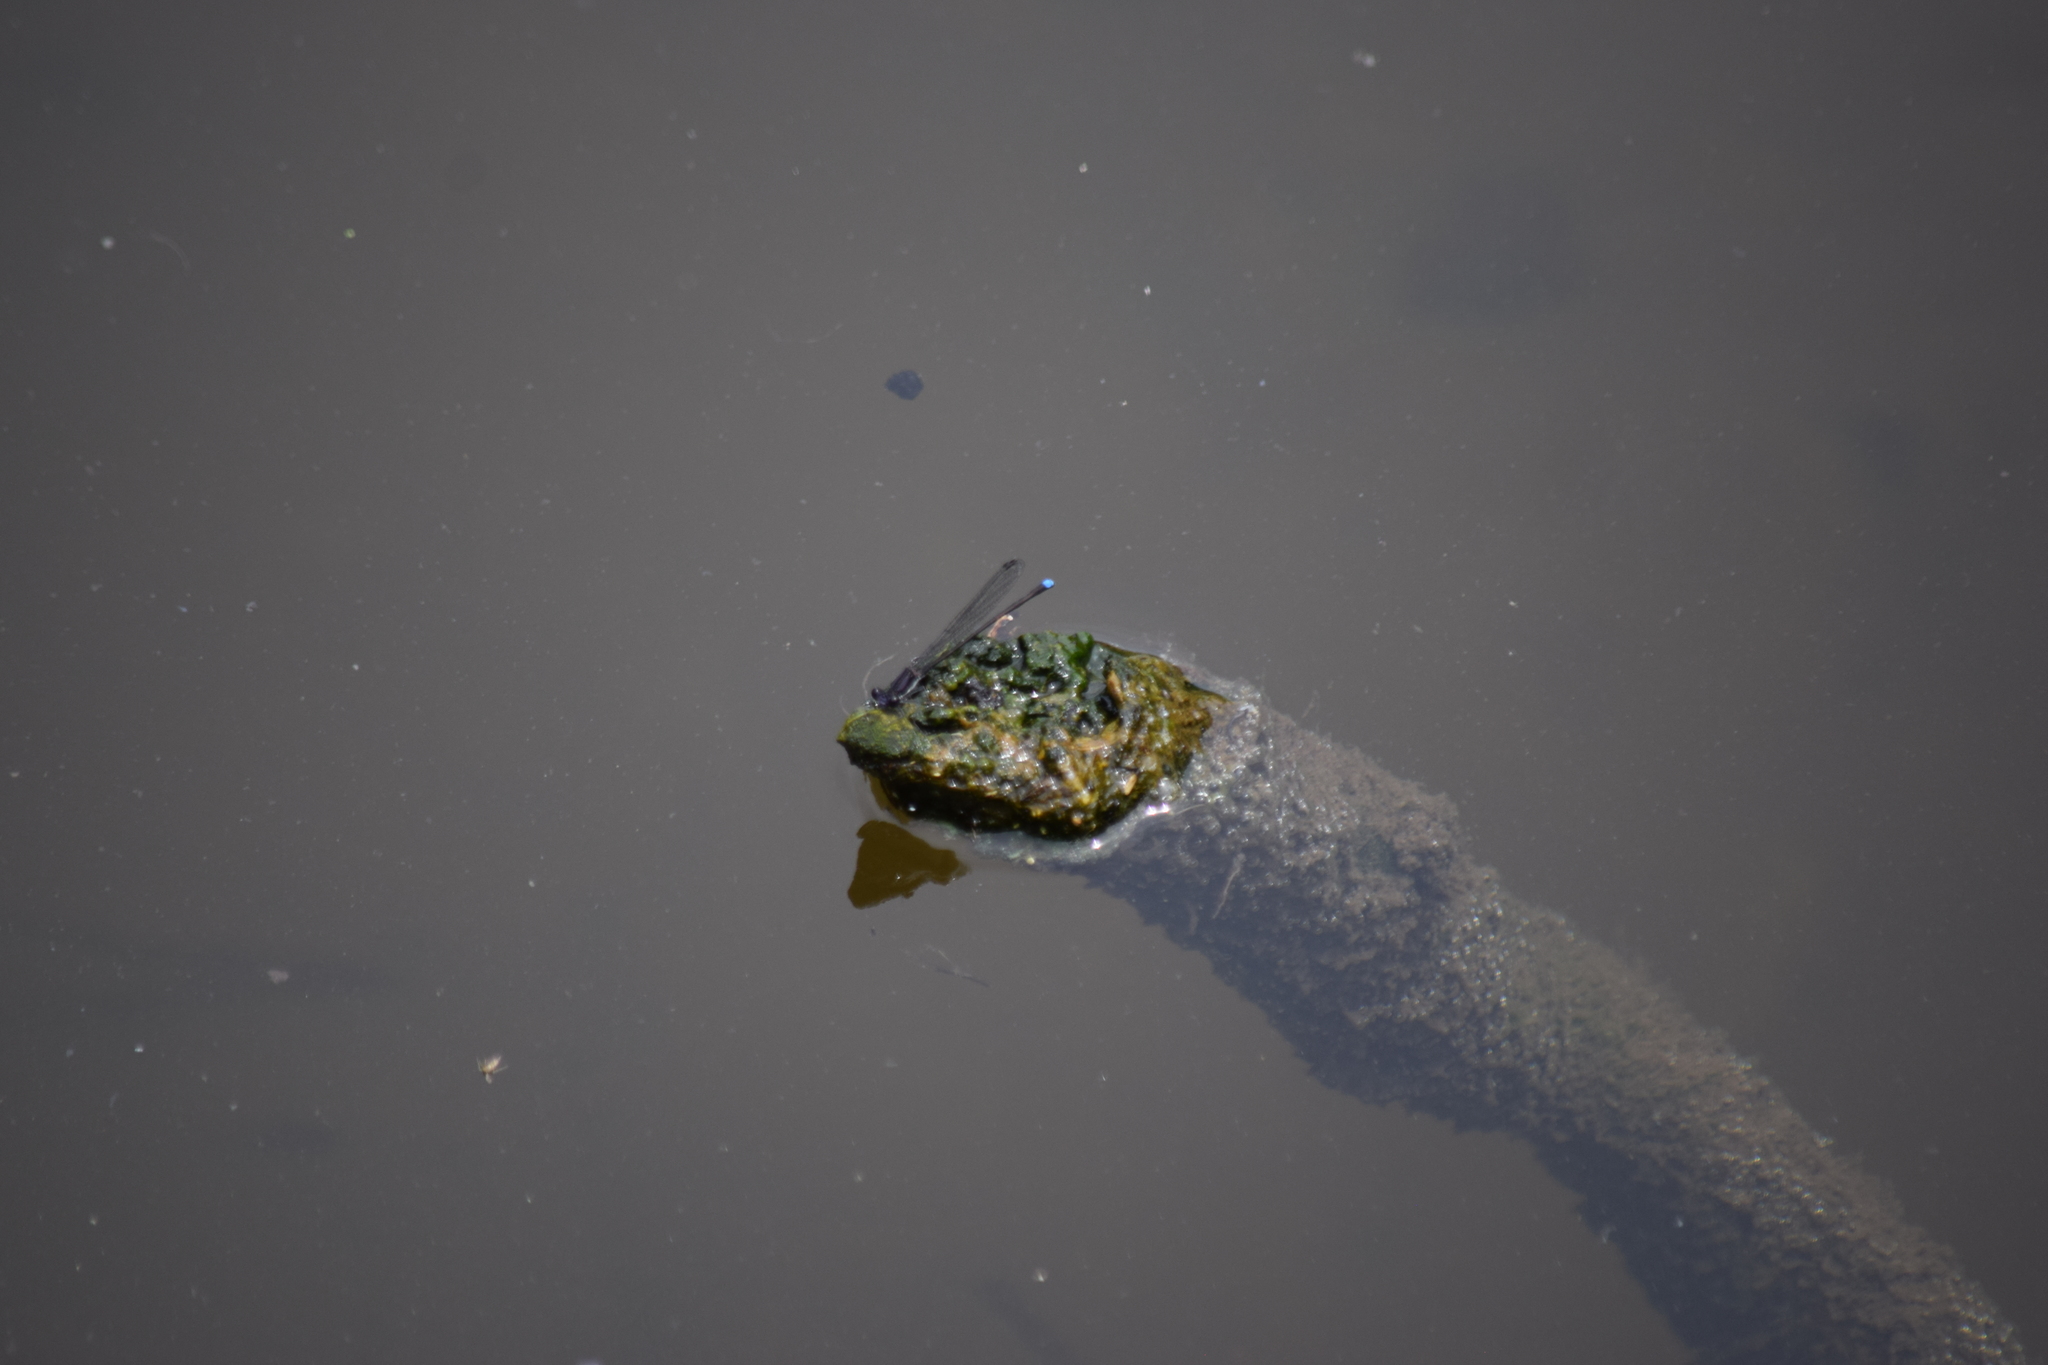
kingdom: Animalia
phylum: Arthropoda
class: Insecta
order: Odonata
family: Coenagrionidae
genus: Argia
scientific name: Argia tibialis
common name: Blue-tipped dancer
